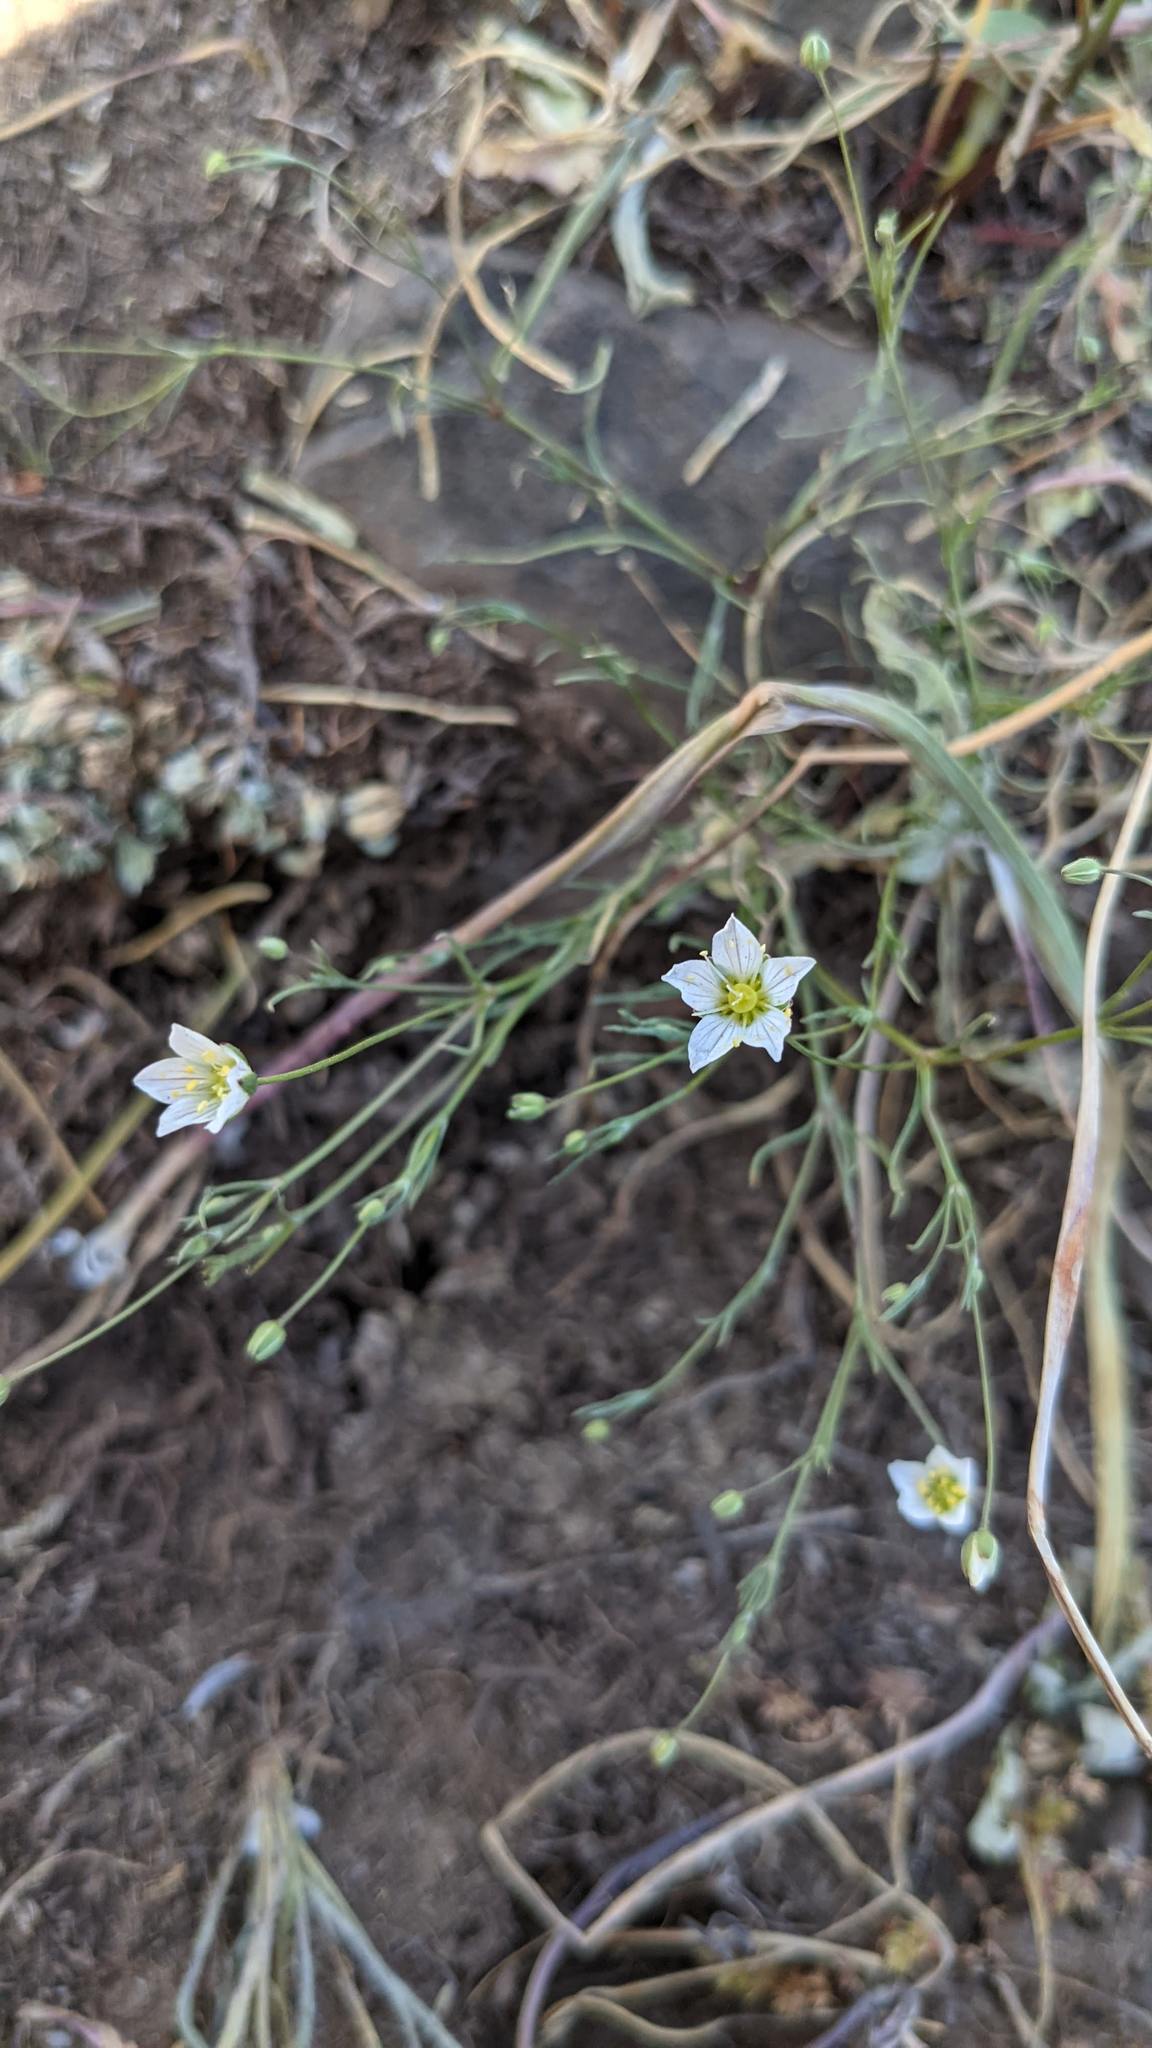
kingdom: Plantae
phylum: Tracheophyta
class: Magnoliopsida
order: Caryophyllales
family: Caryophyllaceae
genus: Sabulina
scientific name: Sabulina californica
